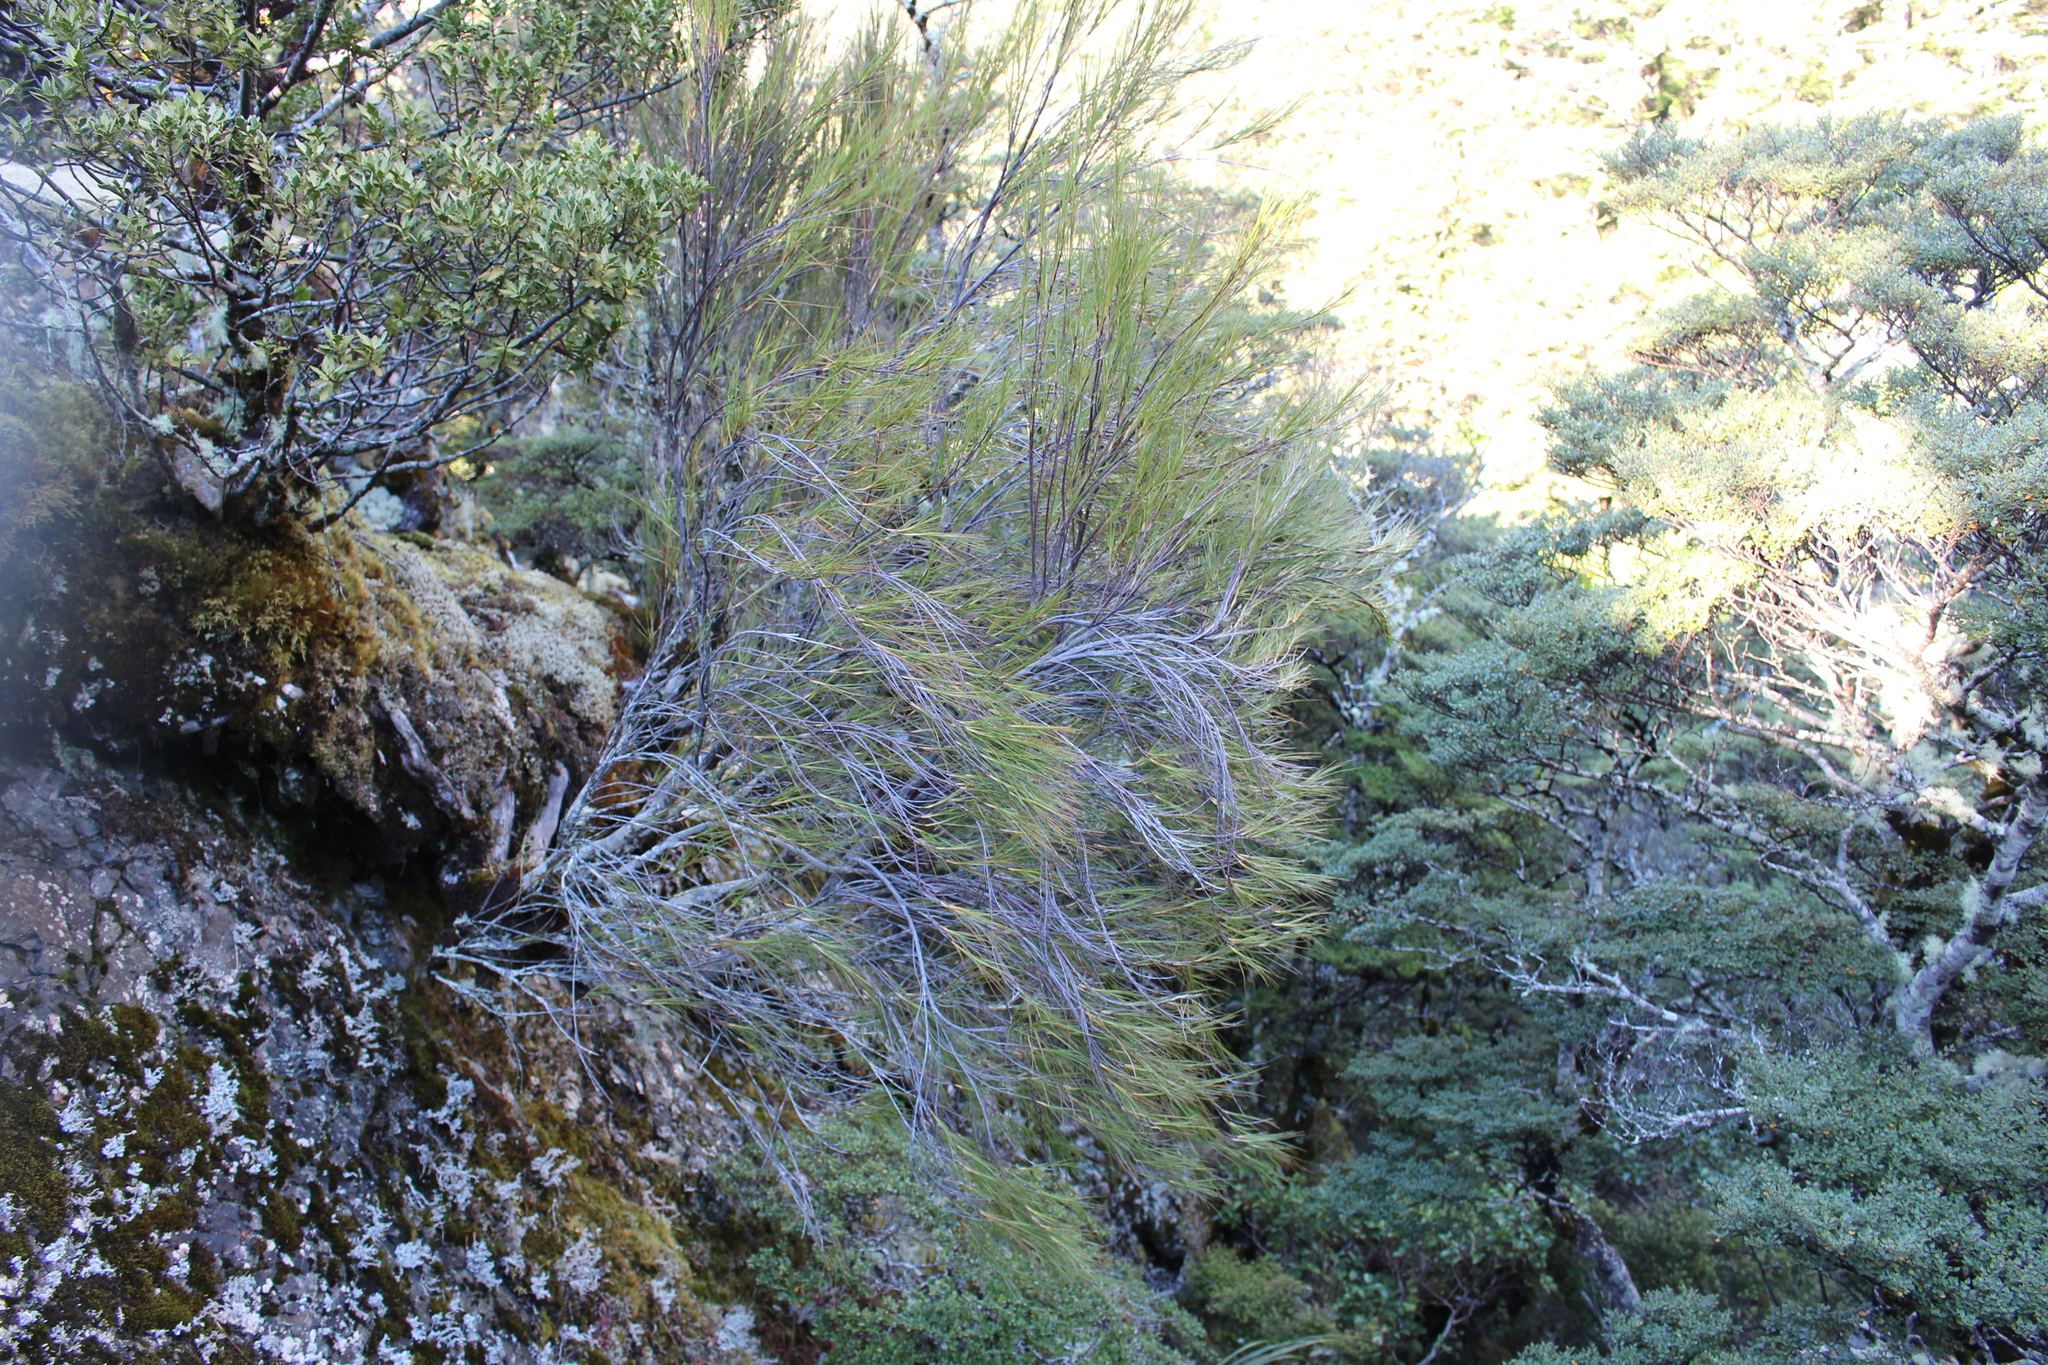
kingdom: Plantae
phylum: Tracheophyta
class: Magnoliopsida
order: Ericales
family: Ericaceae
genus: Dracophyllum
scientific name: Dracophyllum filifolium
